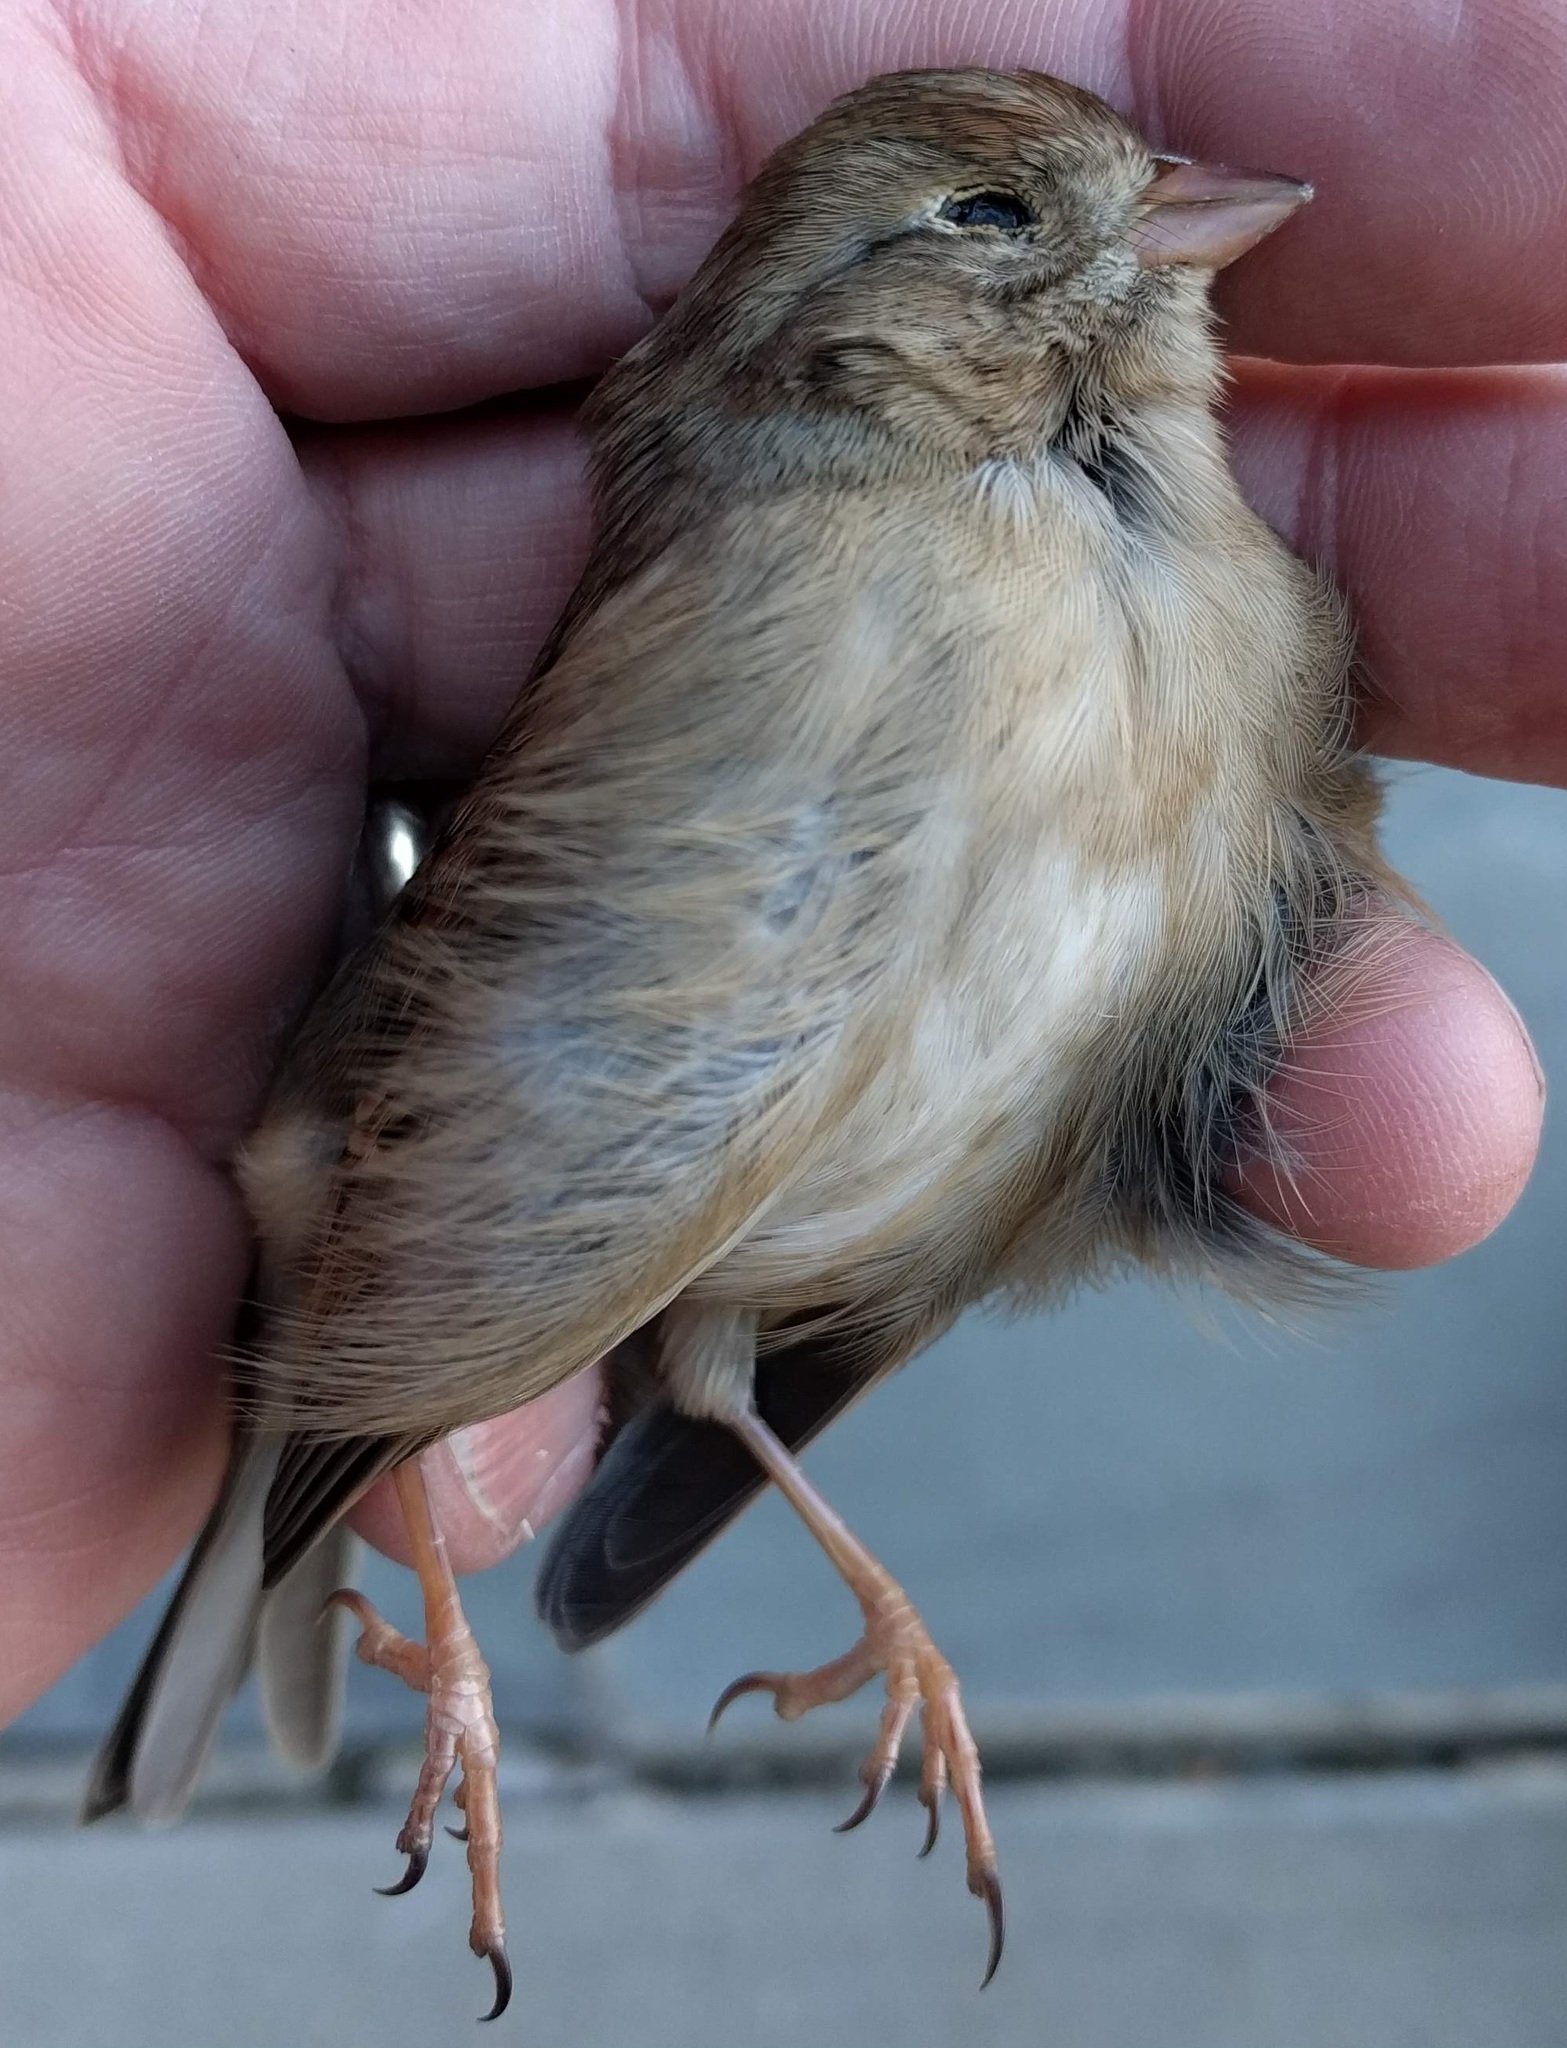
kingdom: Animalia
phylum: Chordata
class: Aves
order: Passeriformes
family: Passerellidae
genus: Spizella
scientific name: Spizella pusilla
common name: Field sparrow
